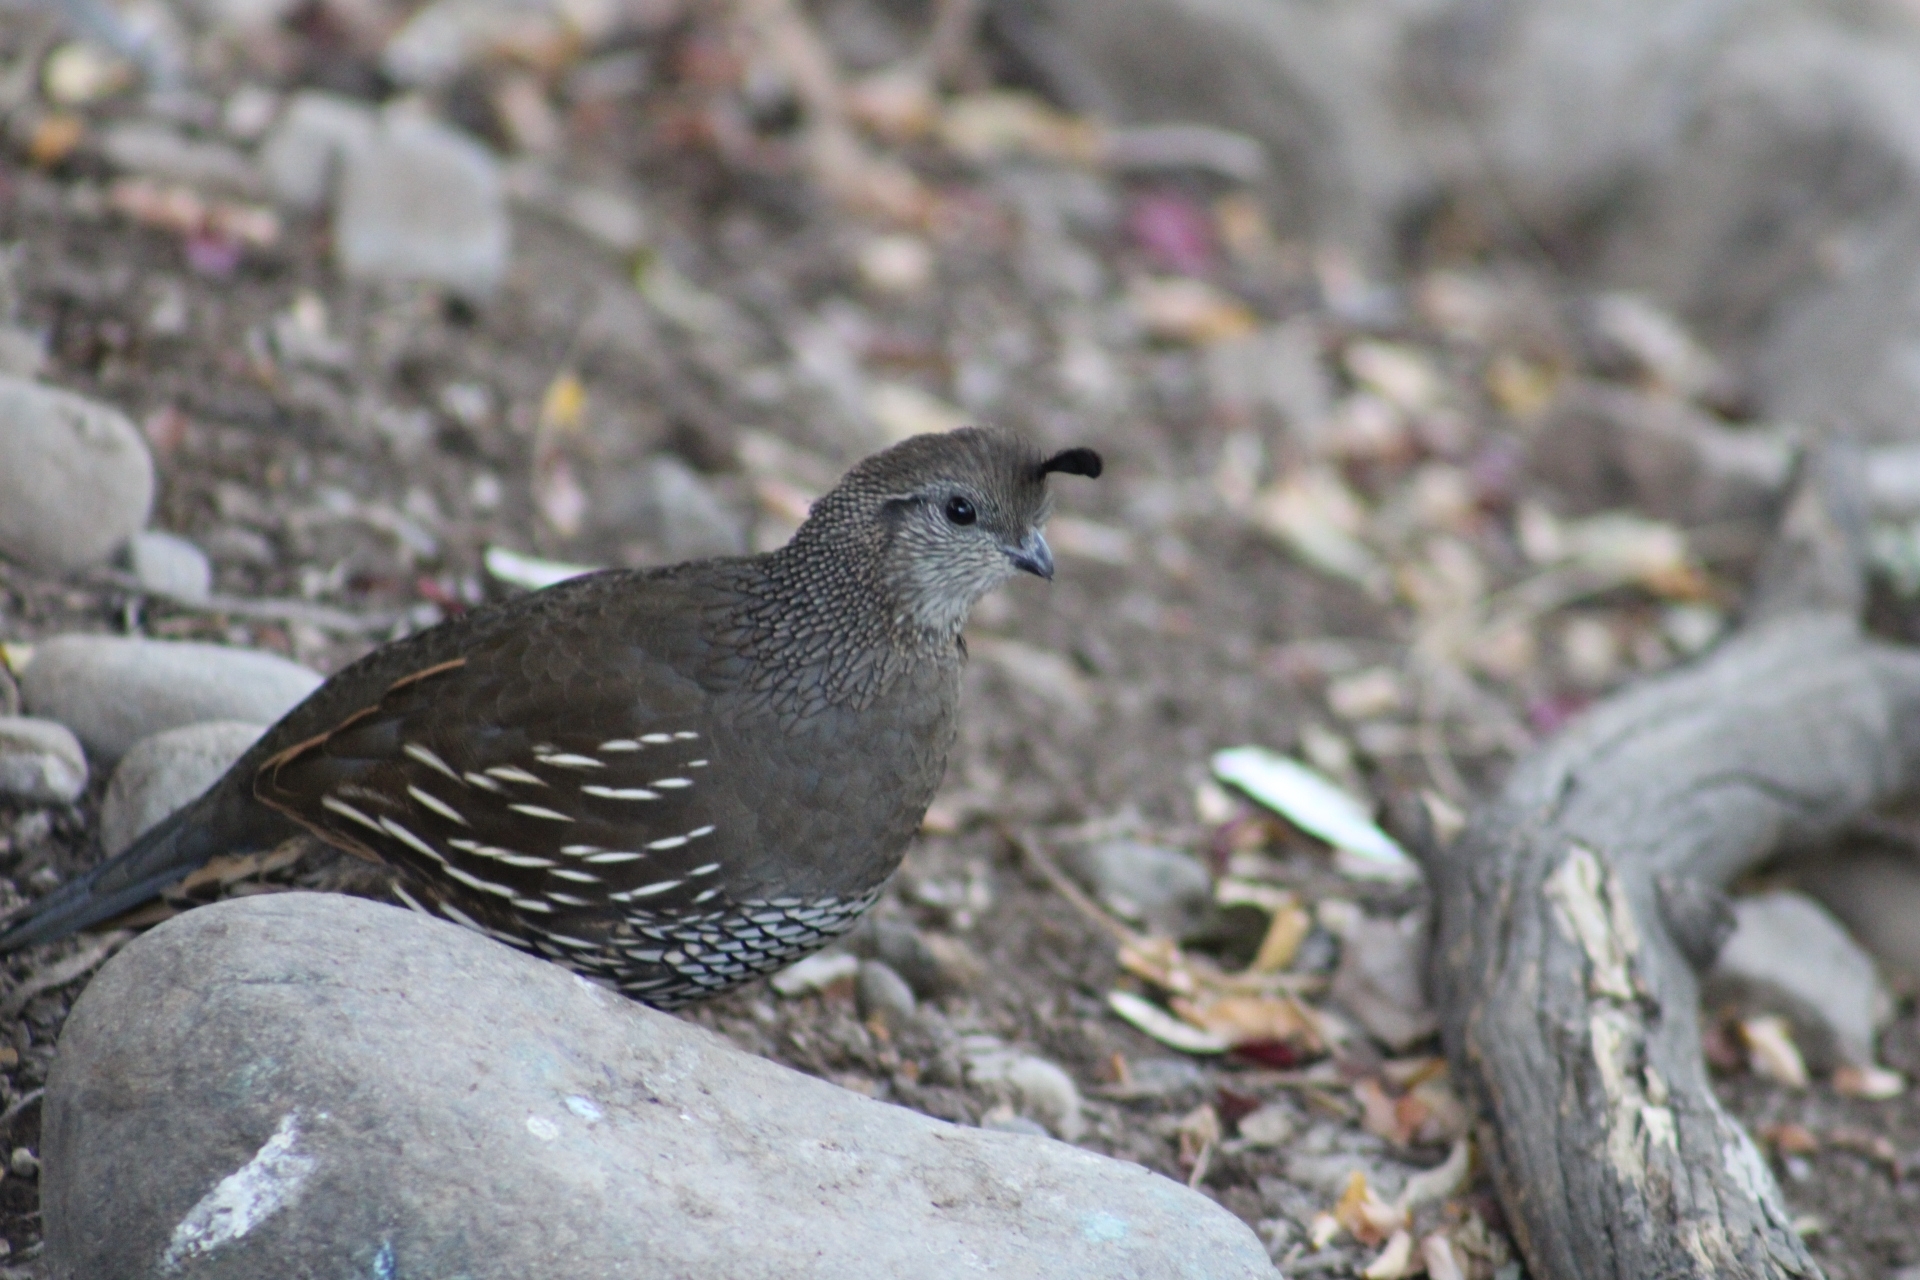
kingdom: Animalia
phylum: Chordata
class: Aves
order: Galliformes
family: Odontophoridae
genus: Callipepla
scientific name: Callipepla californica
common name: California quail
